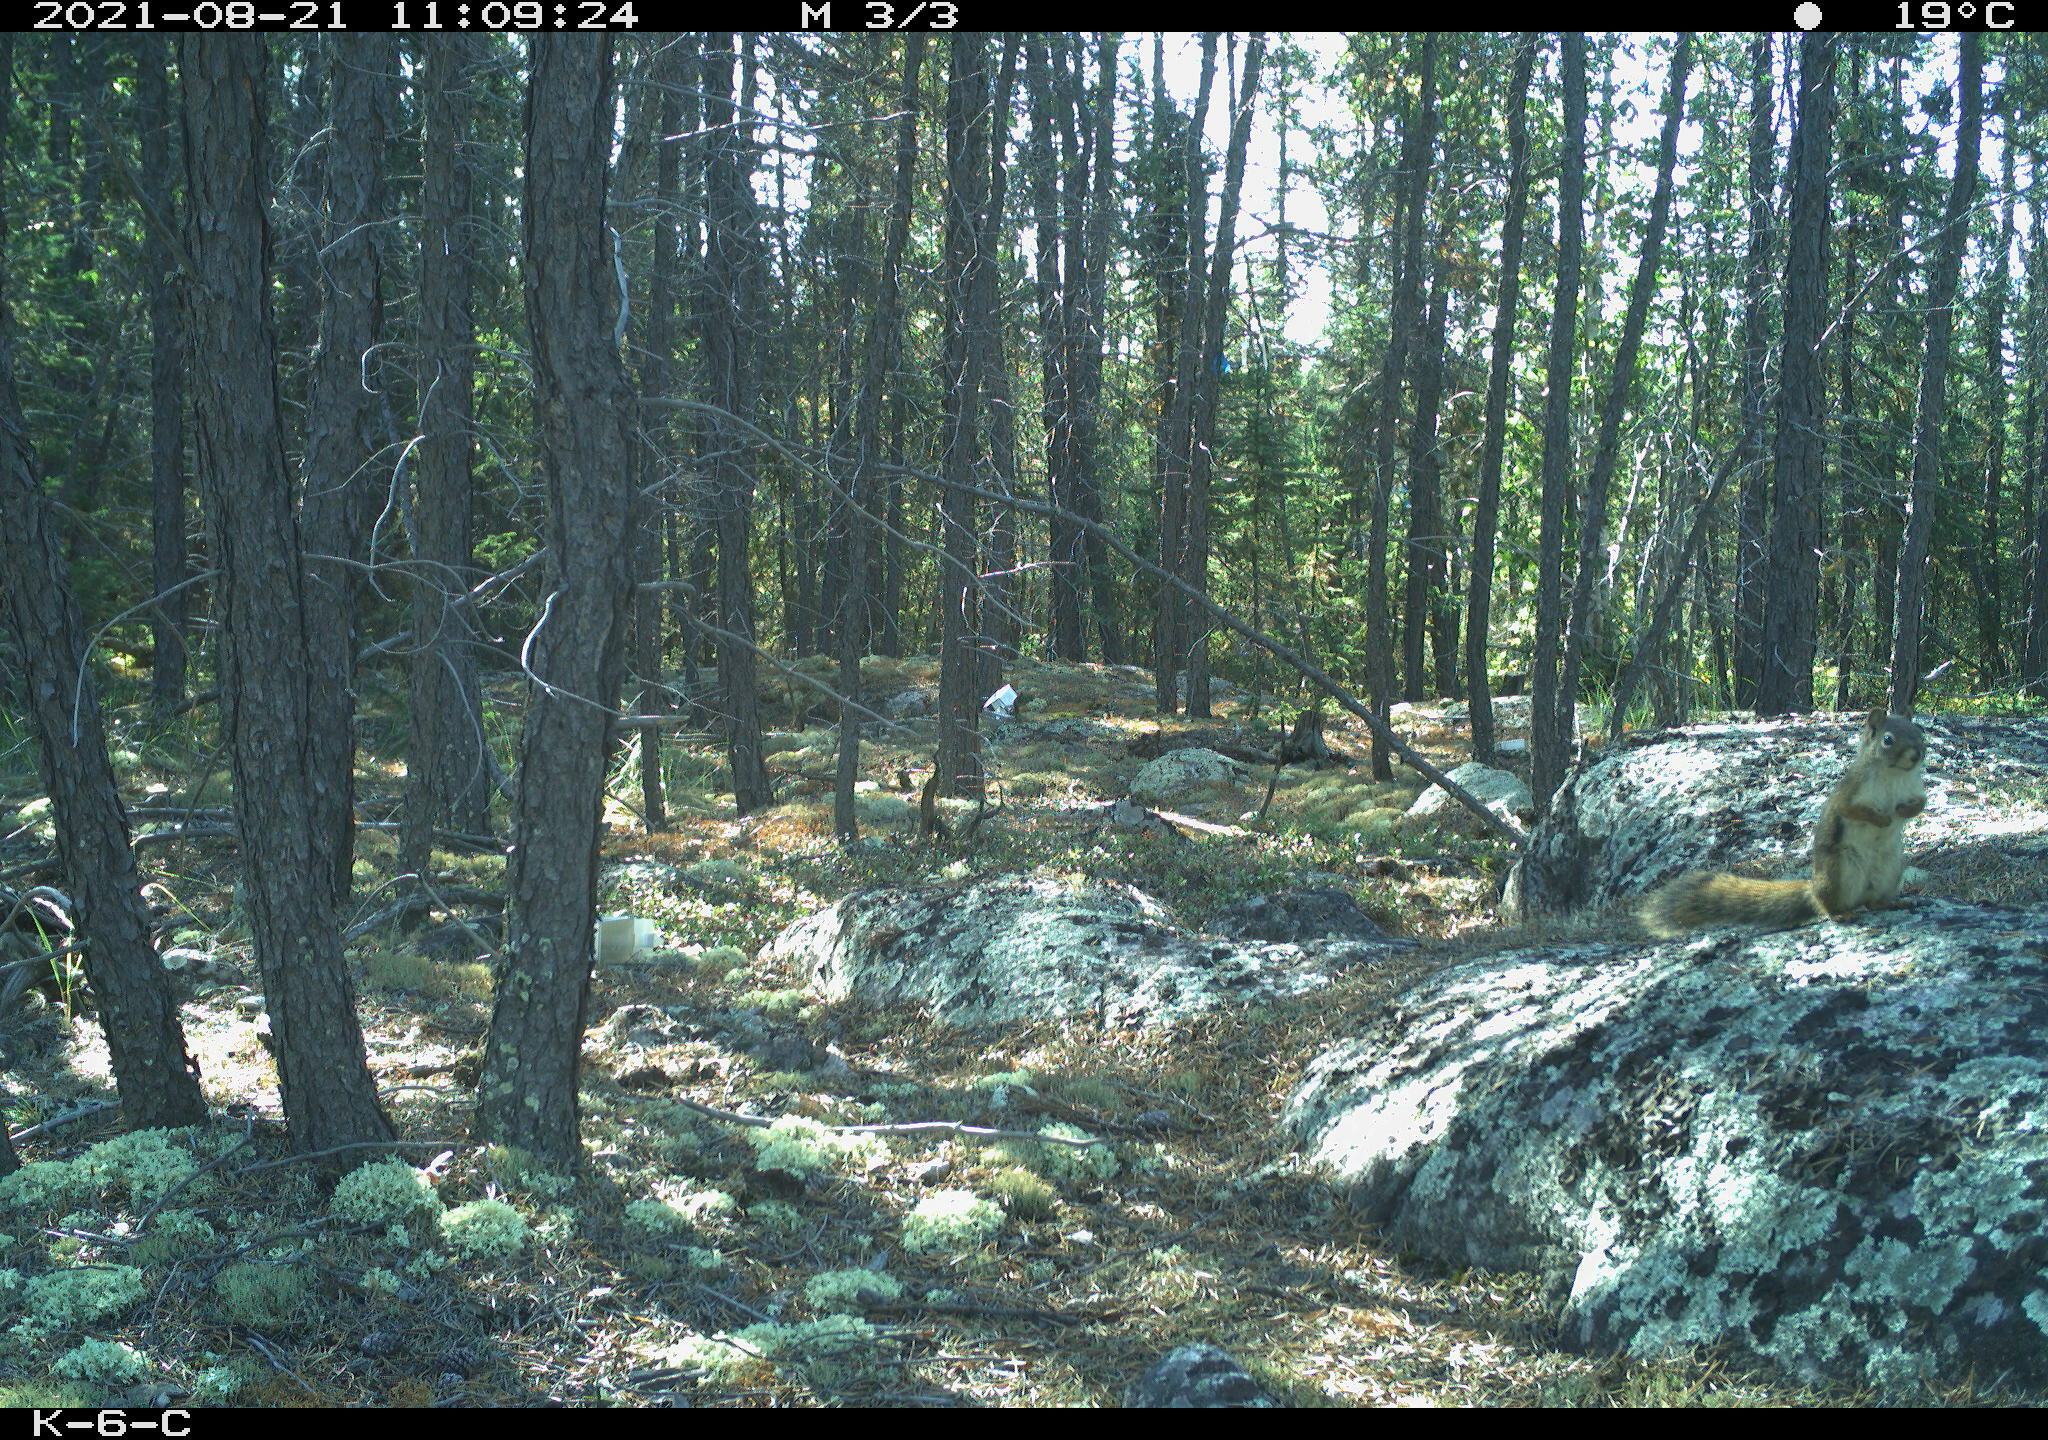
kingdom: Animalia
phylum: Chordata
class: Mammalia
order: Rodentia
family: Sciuridae
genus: Tamiasciurus
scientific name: Tamiasciurus hudsonicus
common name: Red squirrel
